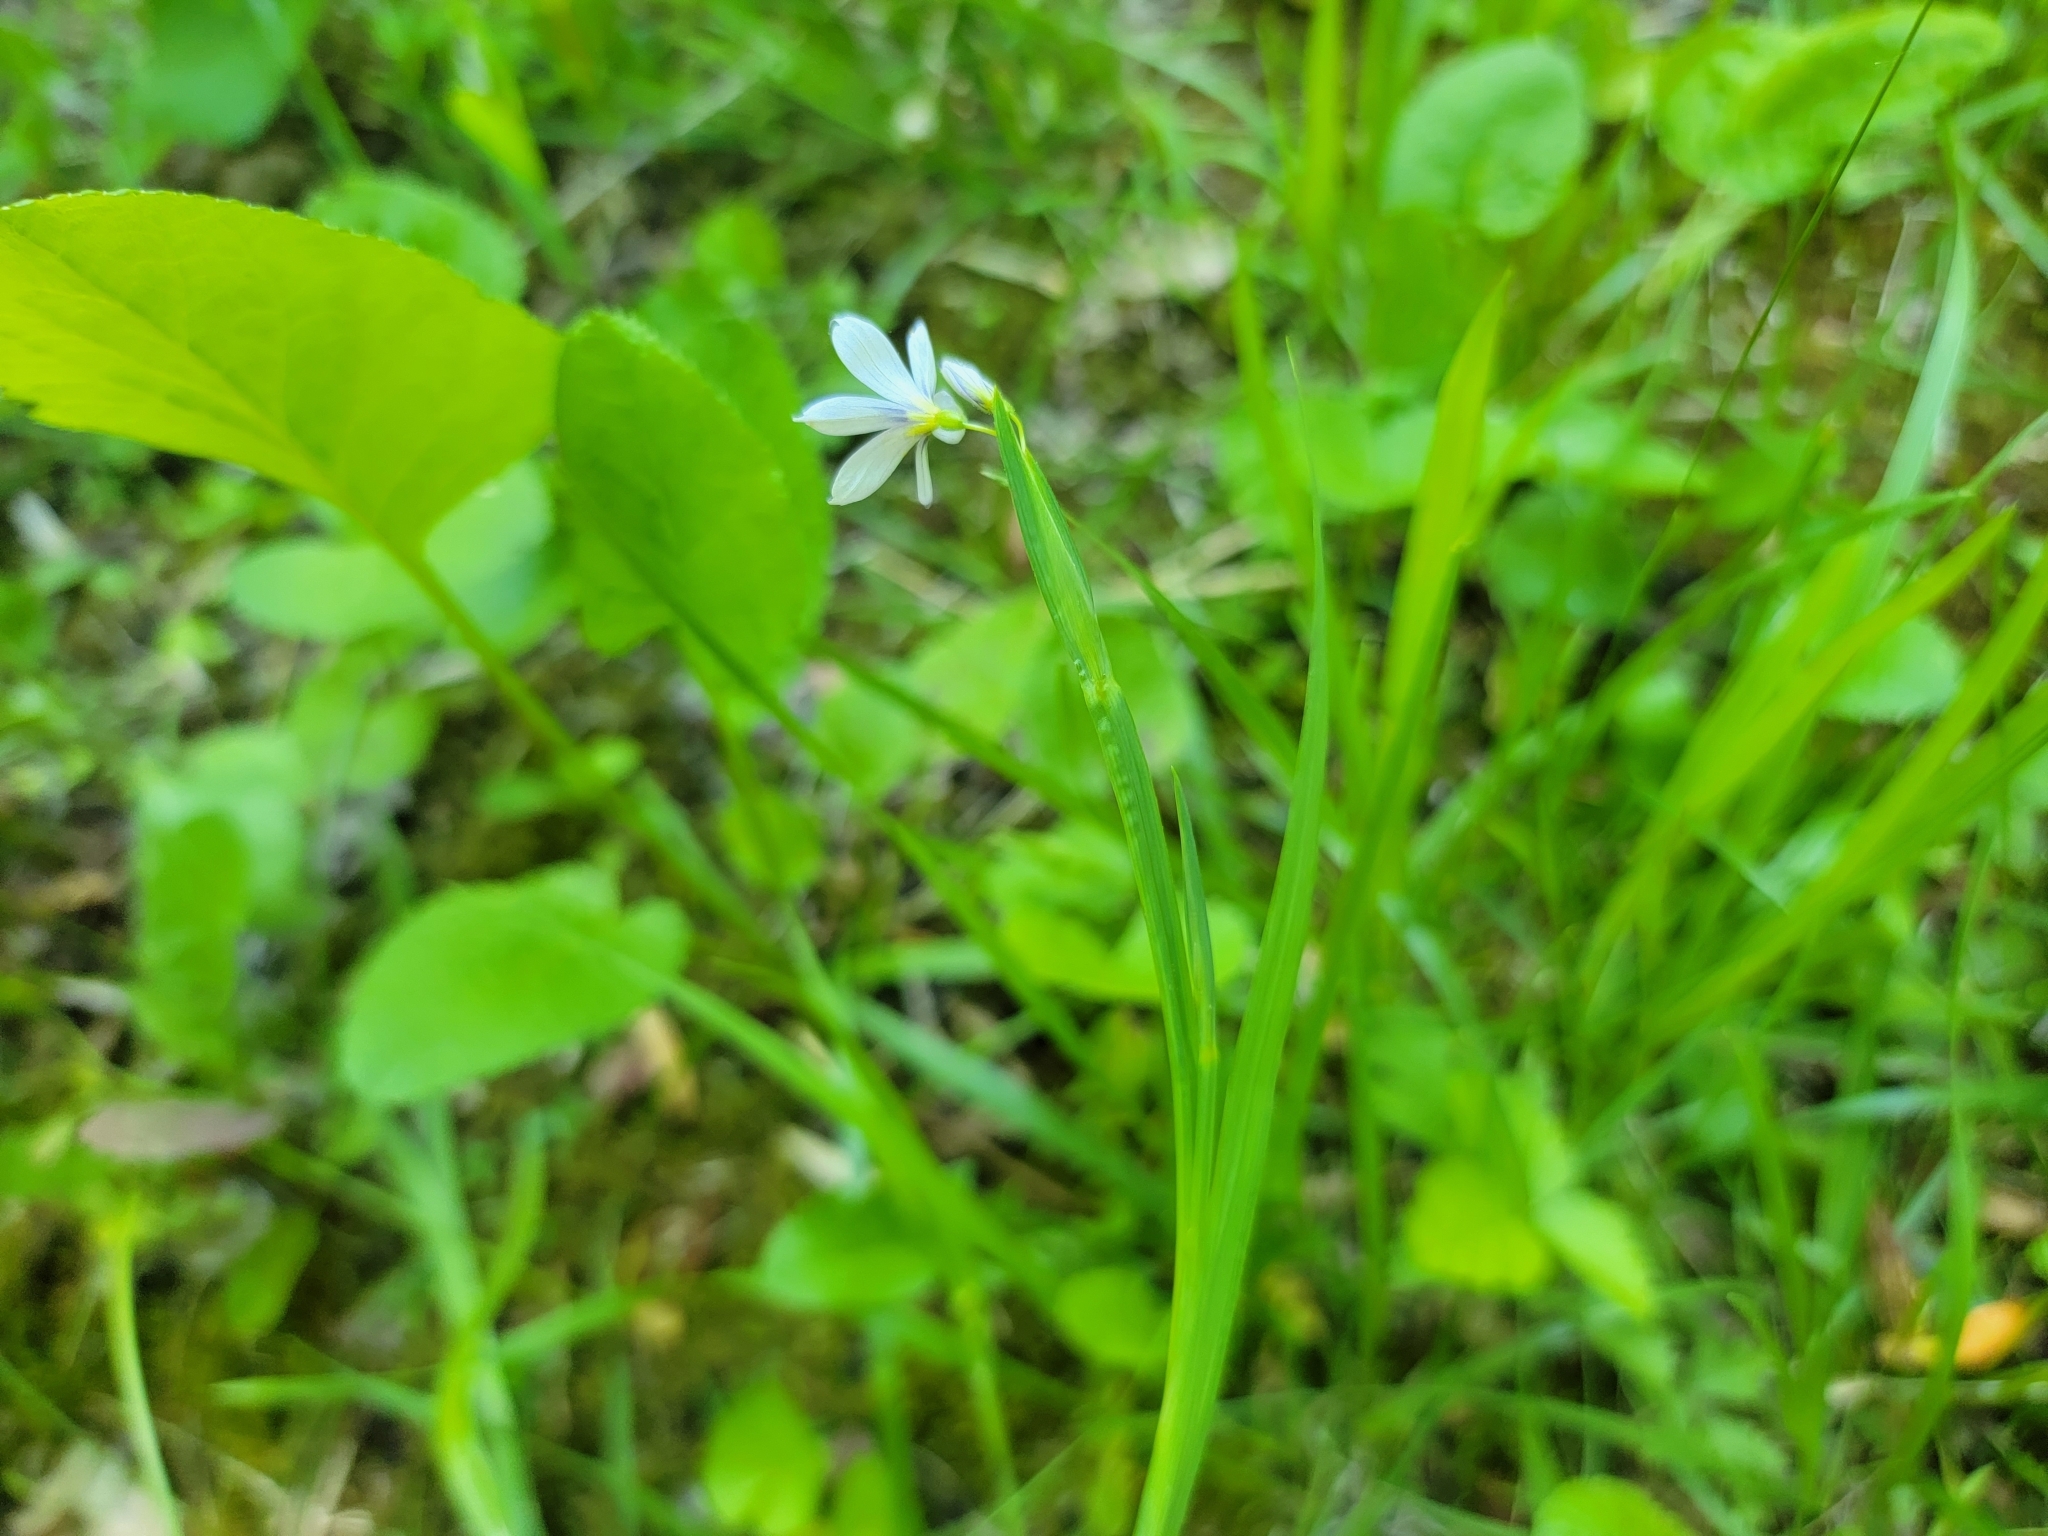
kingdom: Plantae
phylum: Tracheophyta
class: Liliopsida
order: Asparagales
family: Iridaceae
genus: Sisyrinchium
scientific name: Sisyrinchium angustifolium
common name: Narrow-leaf blue-eyed-grass
